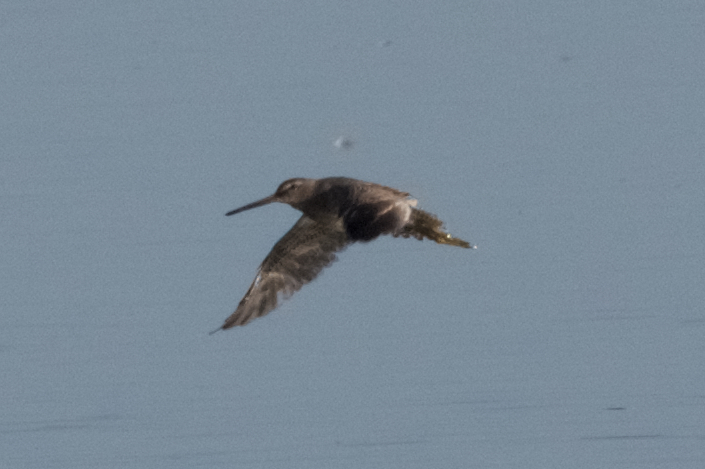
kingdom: Animalia
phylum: Chordata
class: Aves
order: Charadriiformes
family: Scolopacidae
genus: Limnodromus
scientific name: Limnodromus
